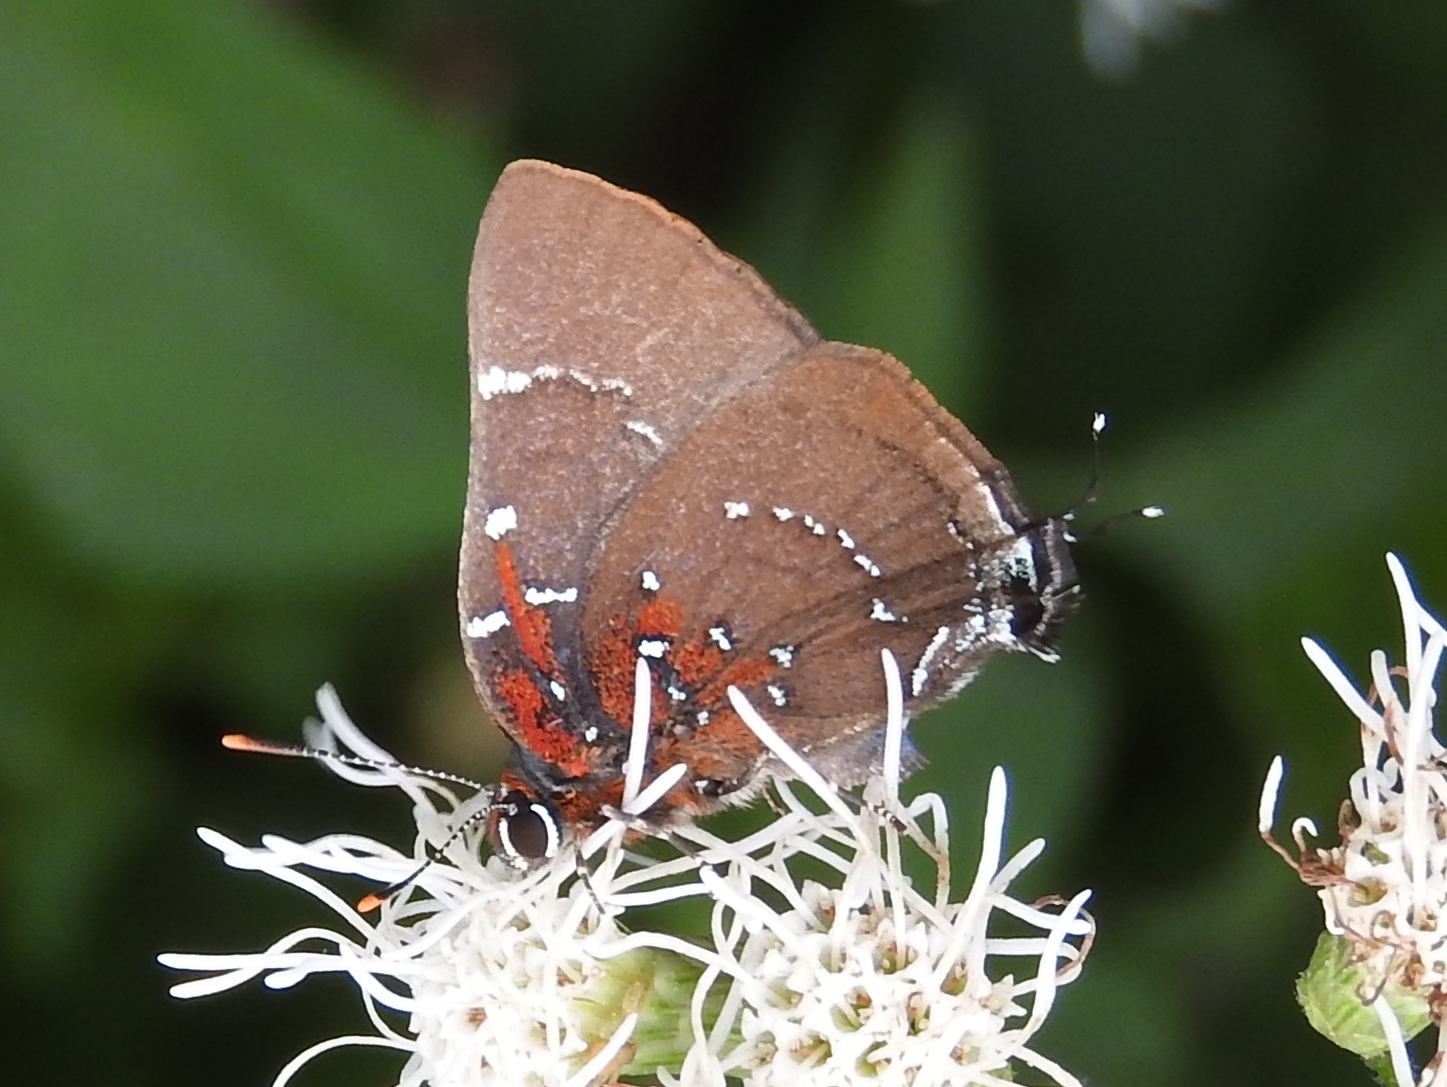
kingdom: Animalia
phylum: Arthropoda
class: Insecta
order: Lepidoptera
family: Lycaenidae
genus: Atlides
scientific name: Atlides Brangas neora
